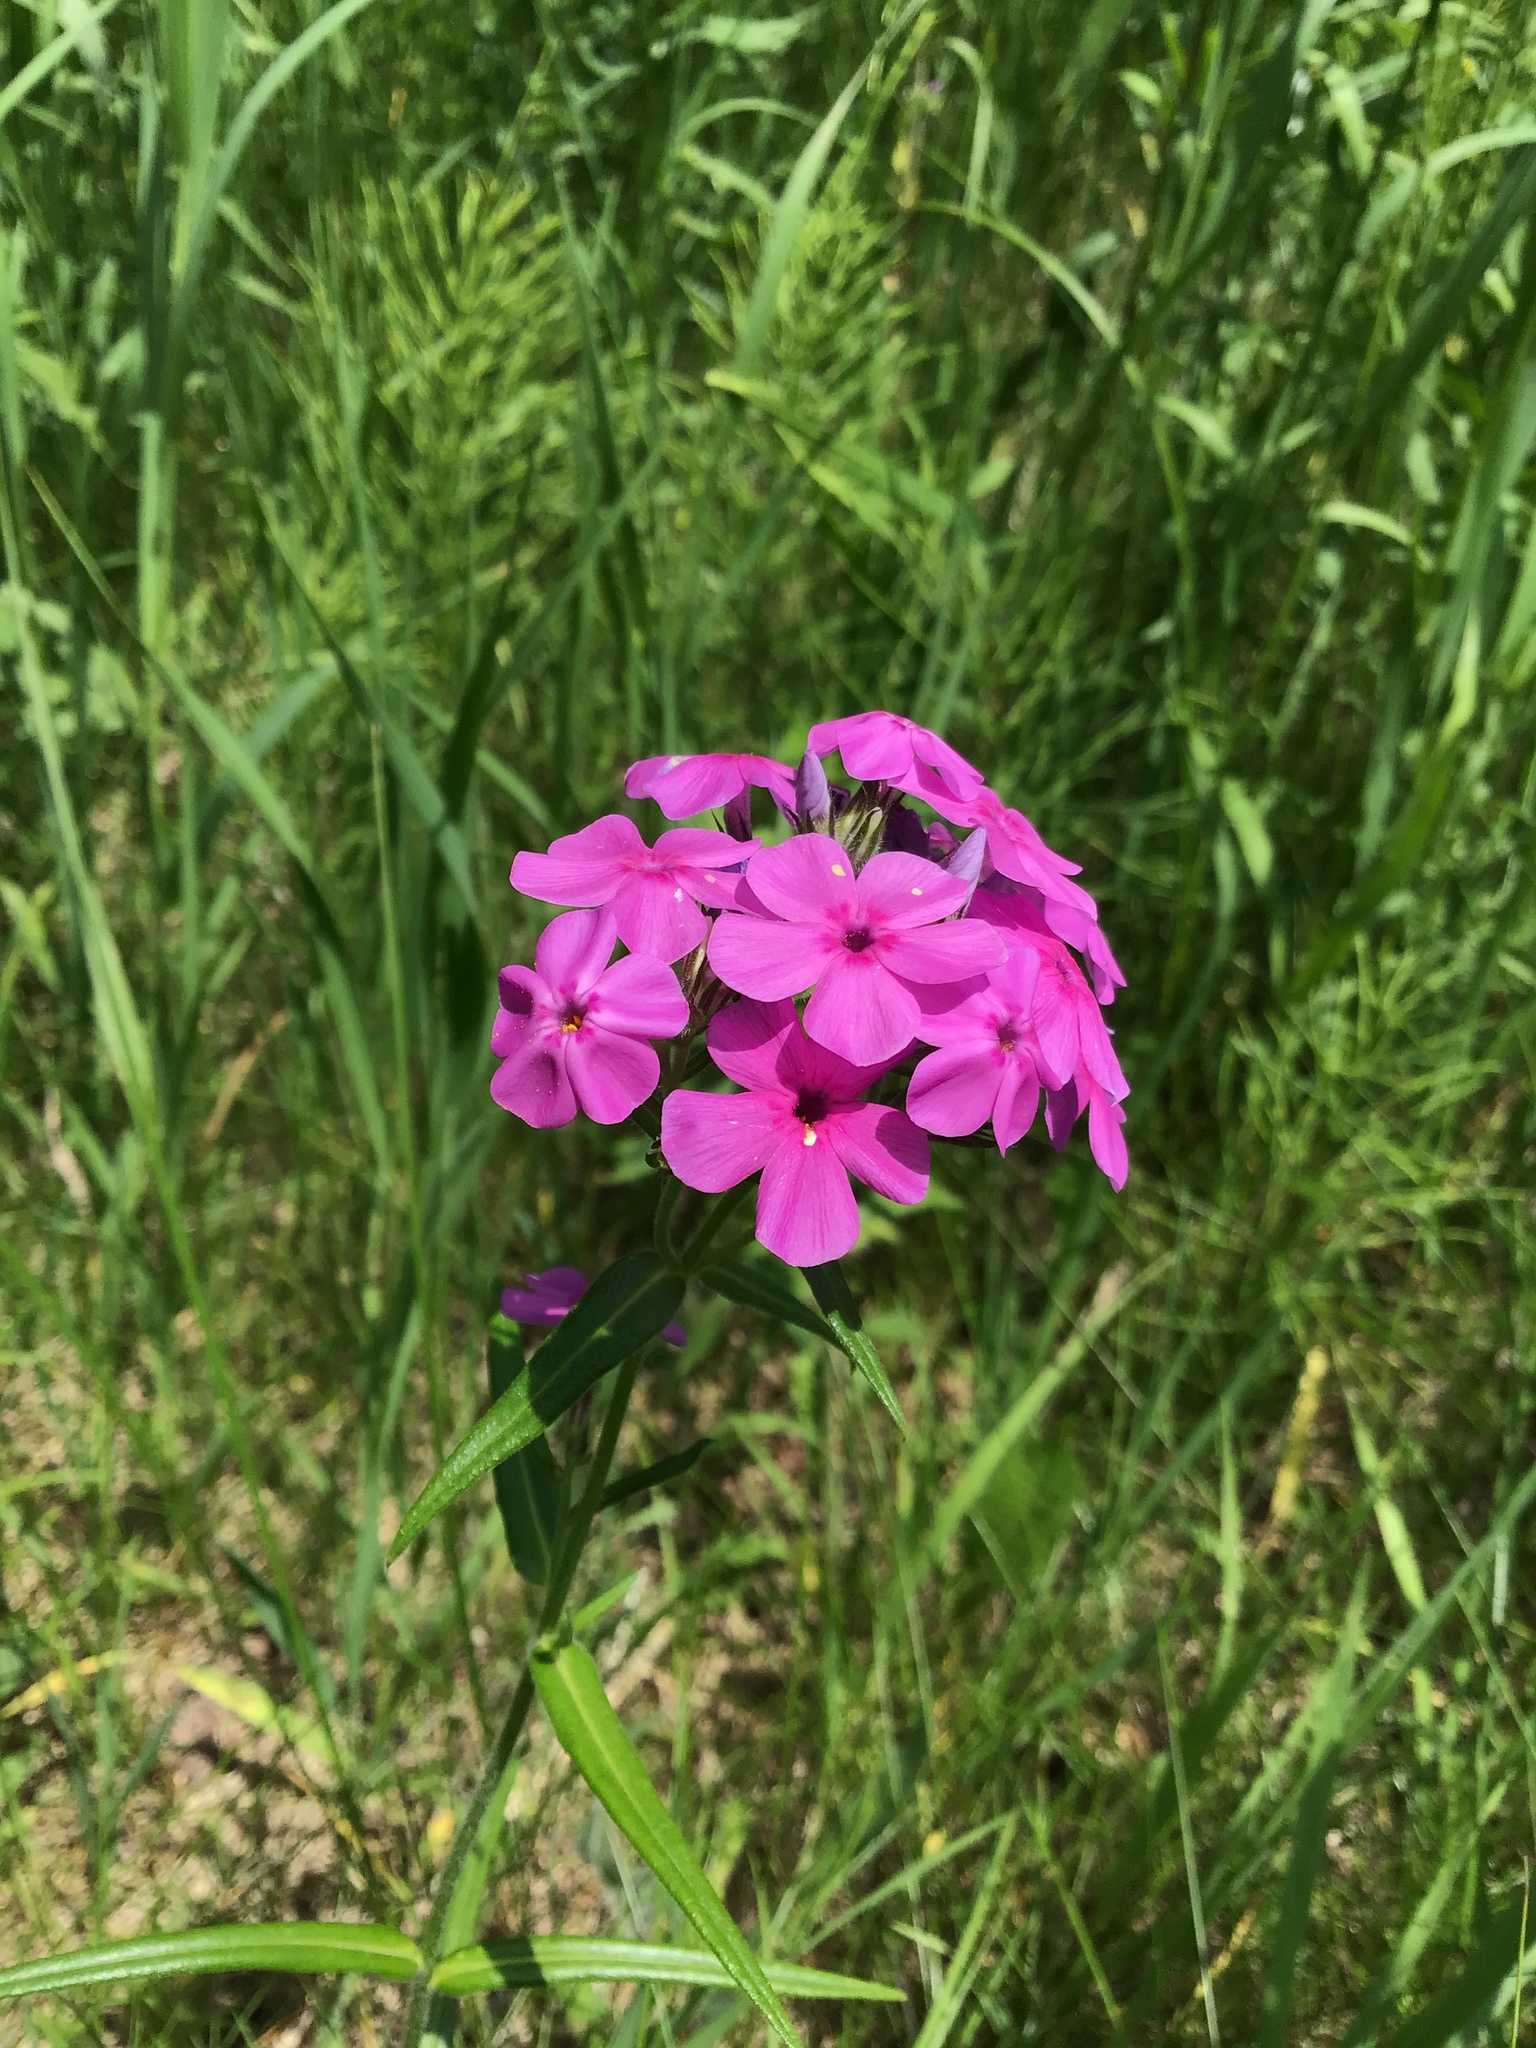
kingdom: Plantae
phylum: Tracheophyta
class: Magnoliopsida
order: Ericales
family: Polemoniaceae
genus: Phlox
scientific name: Phlox pilosa
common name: Prairie phlox
